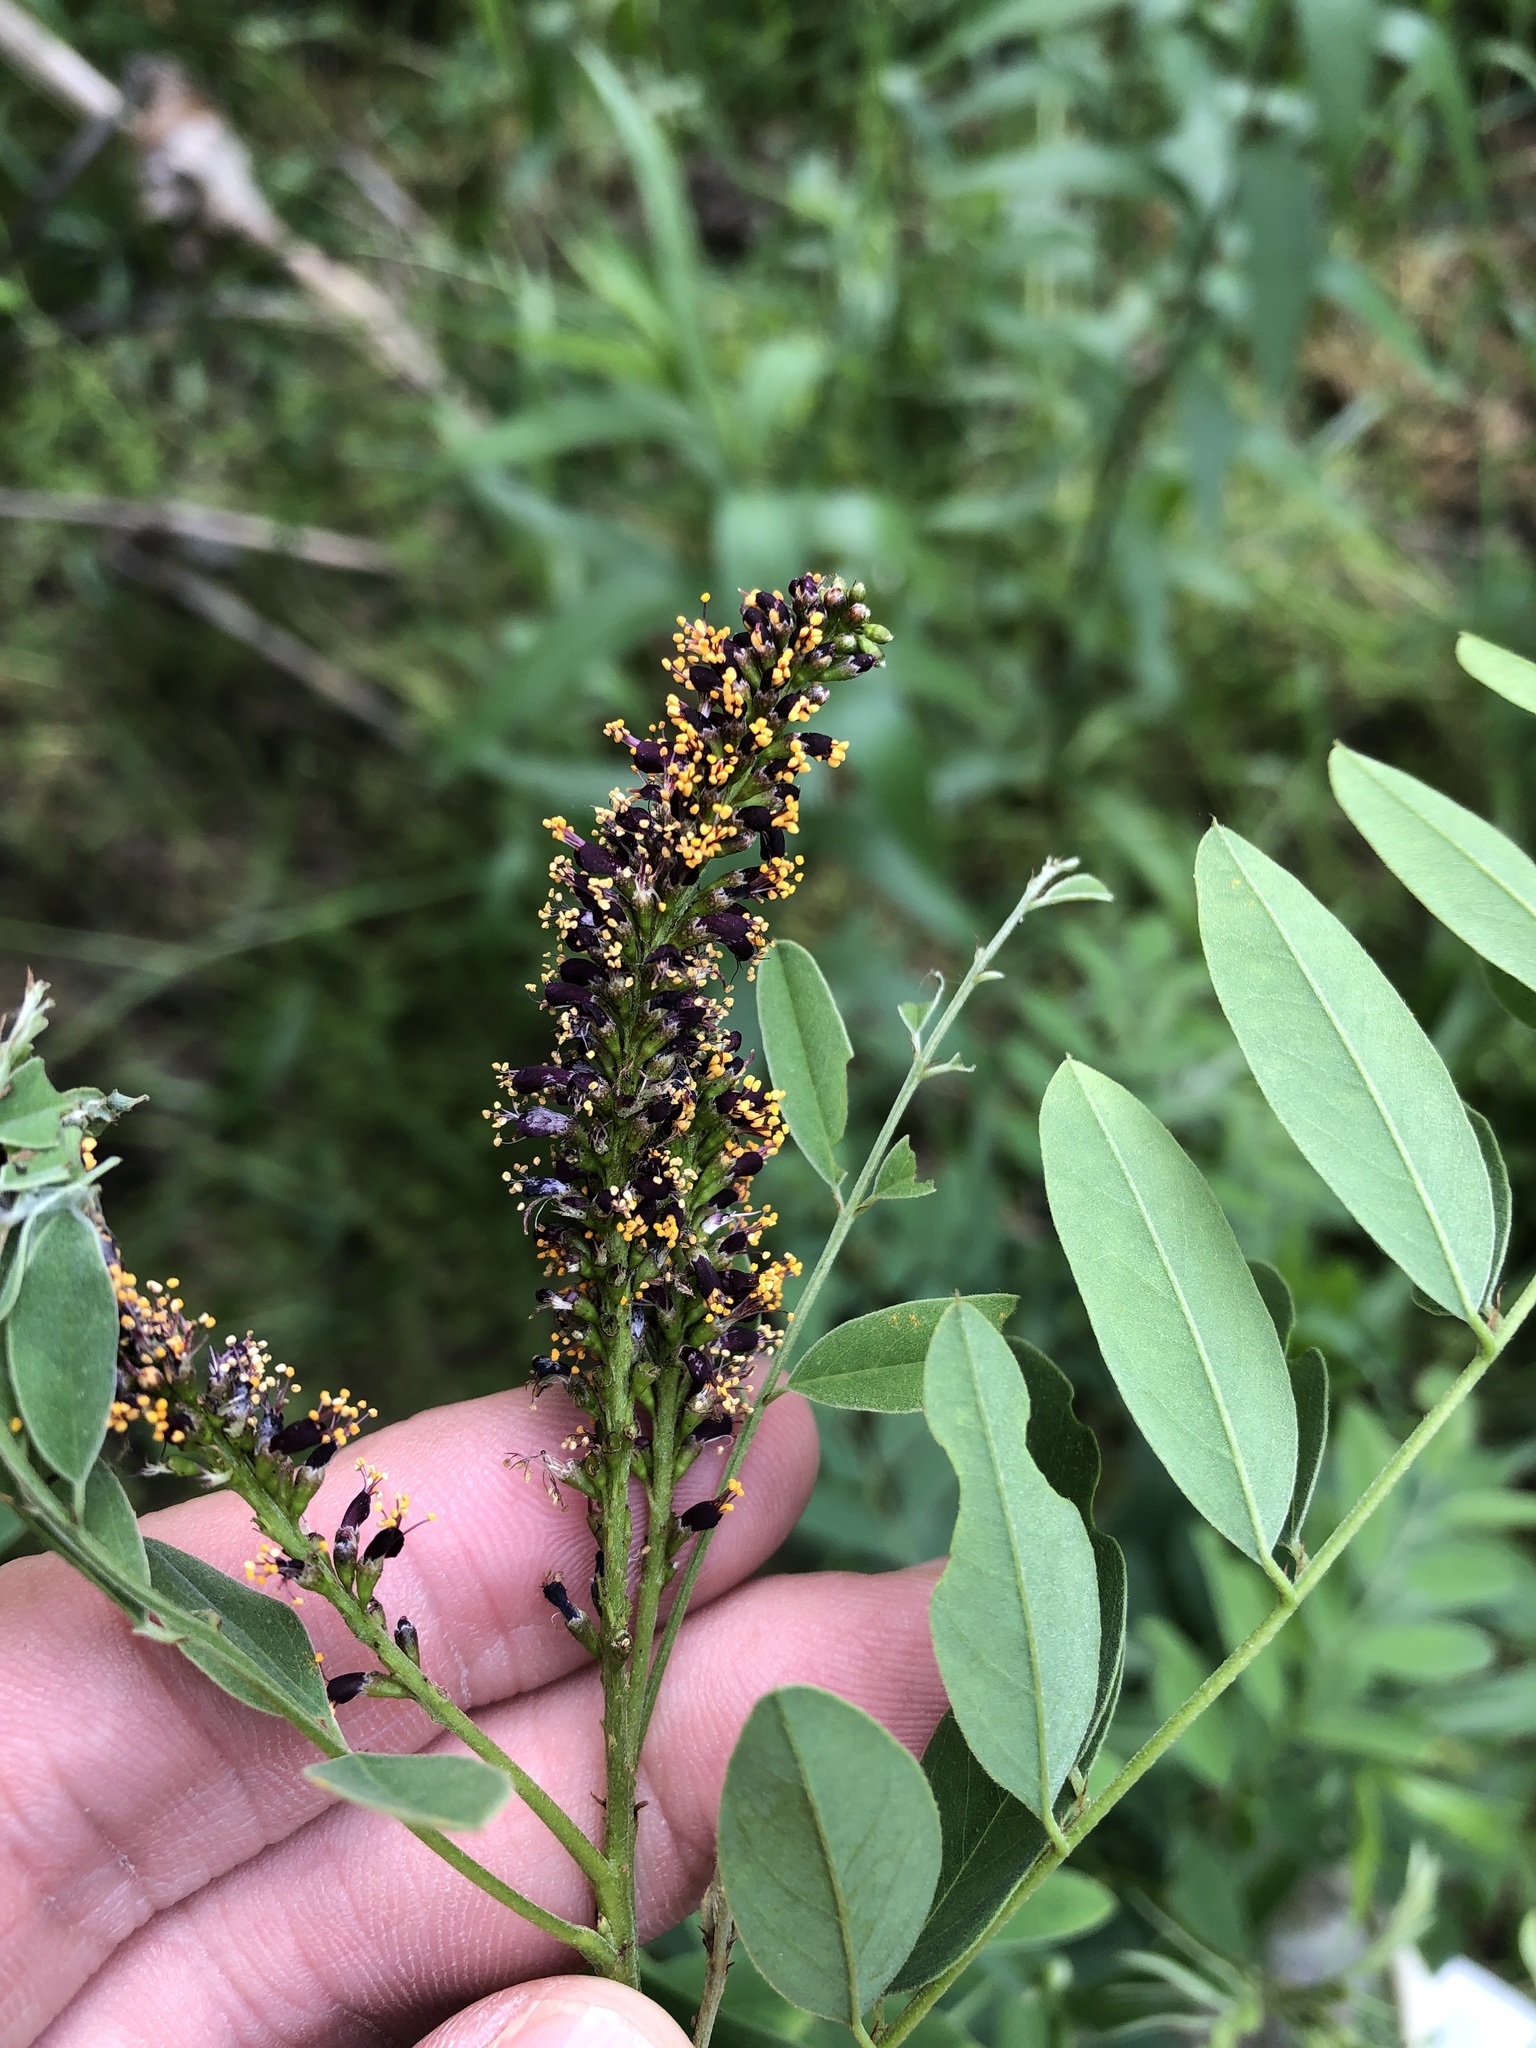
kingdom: Plantae
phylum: Tracheophyta
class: Magnoliopsida
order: Fabales
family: Fabaceae
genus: Amorpha
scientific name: Amorpha fruticosa
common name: False indigo
